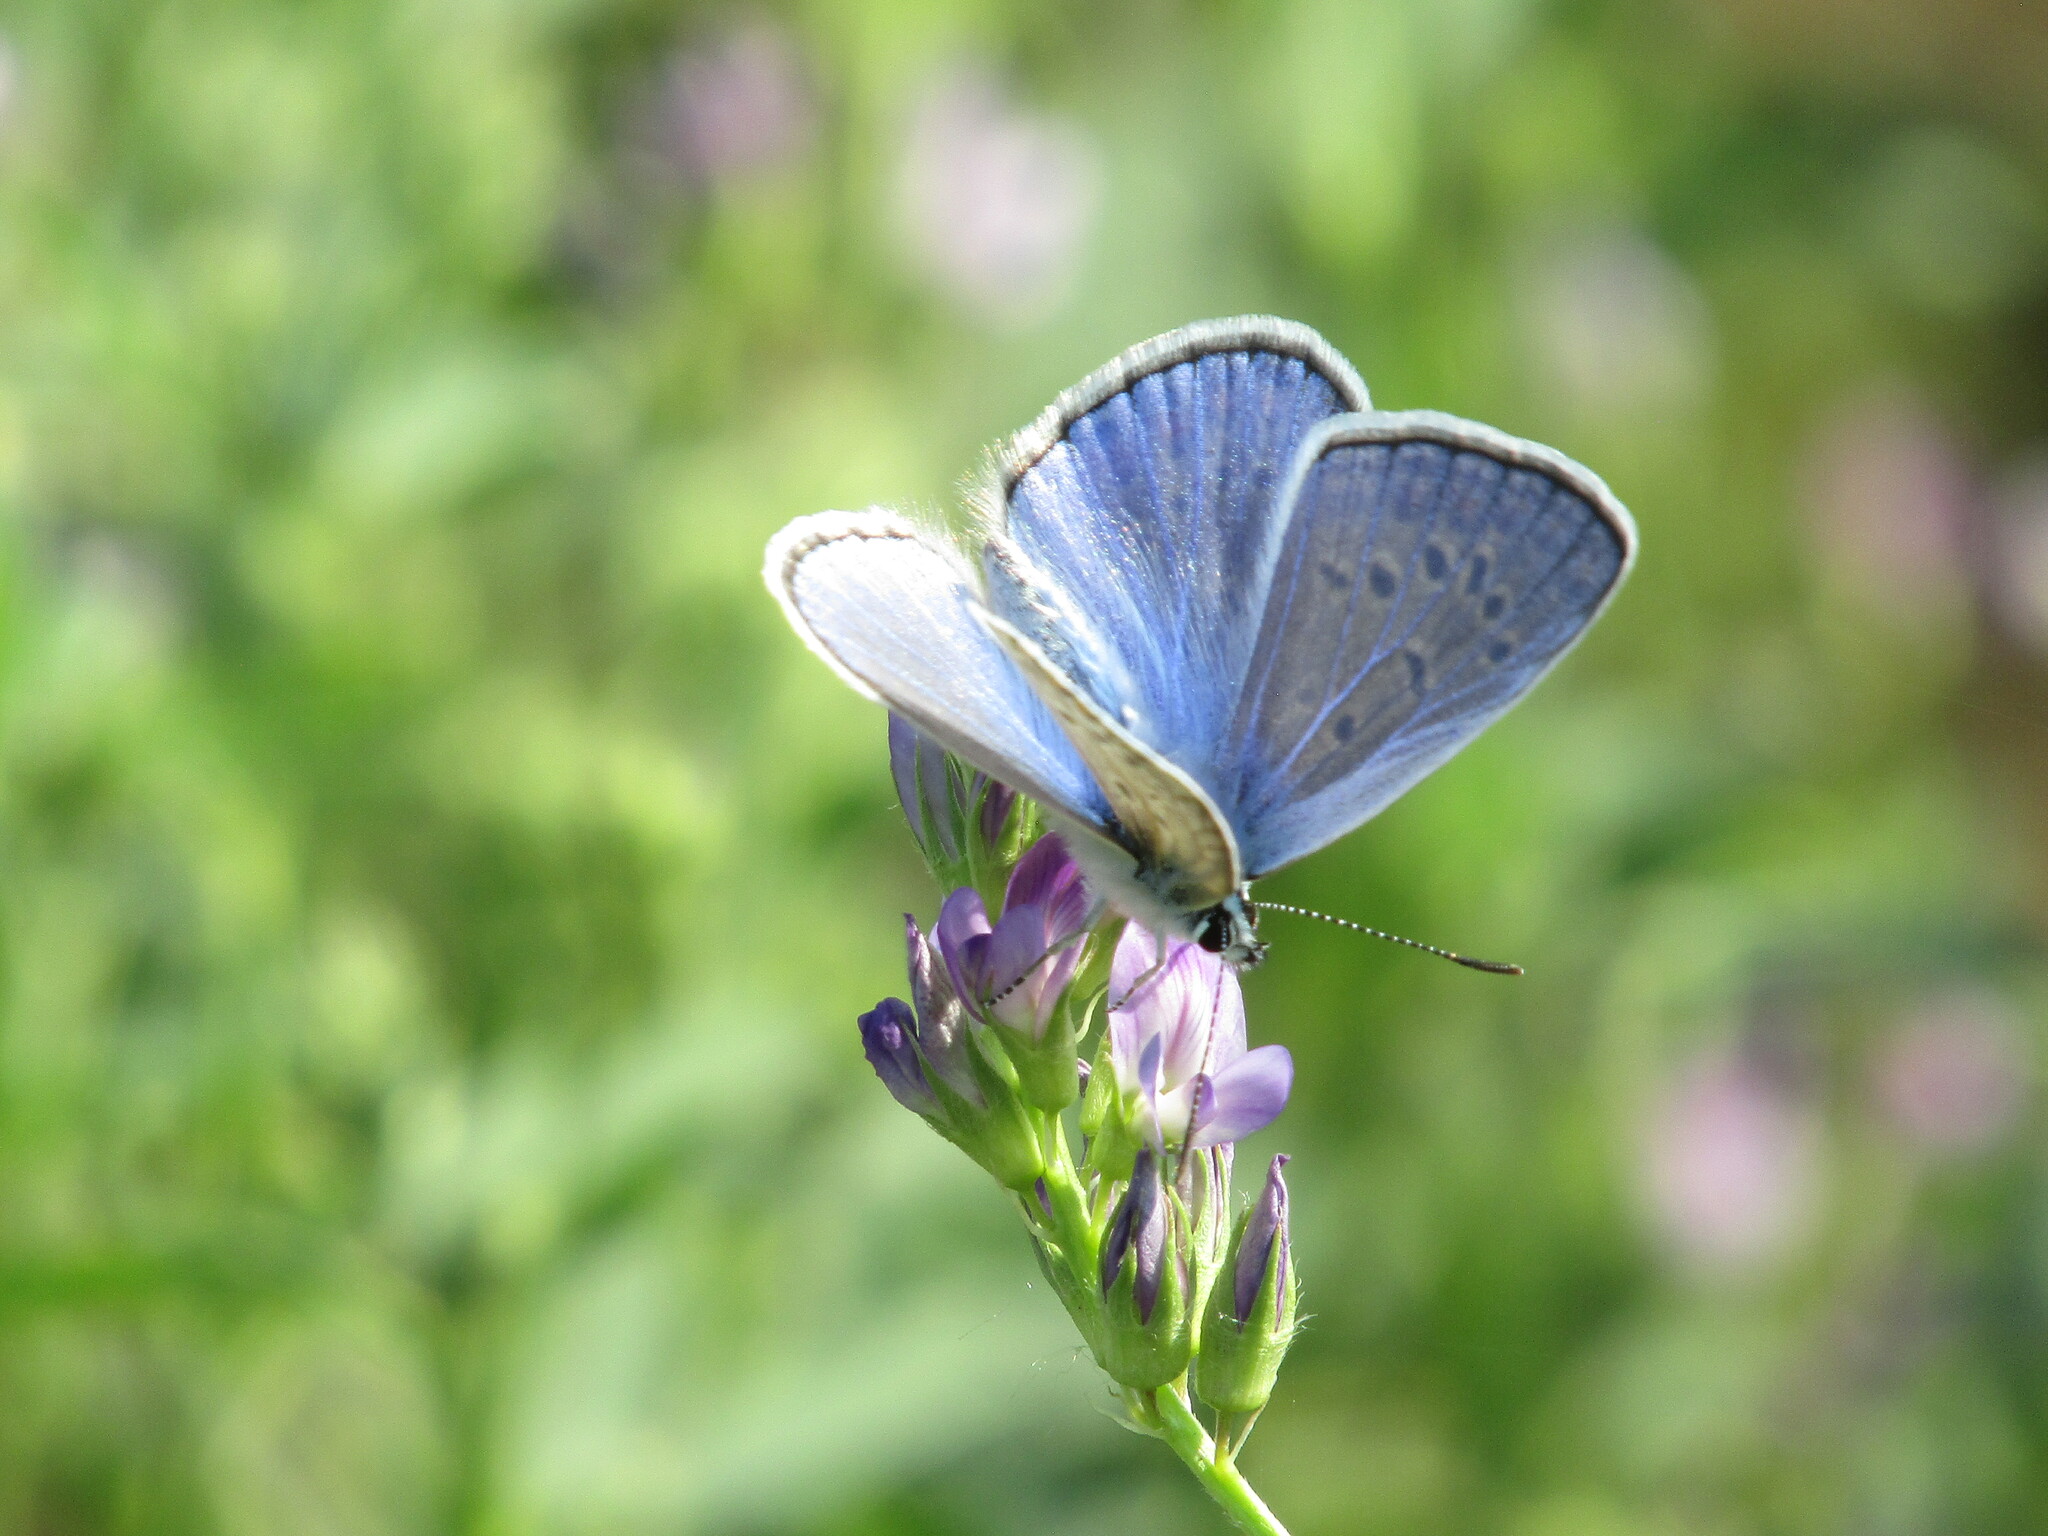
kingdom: Animalia
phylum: Arthropoda
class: Insecta
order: Lepidoptera
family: Lycaenidae
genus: Polyommatus
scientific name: Polyommatus icarus
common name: Common blue
